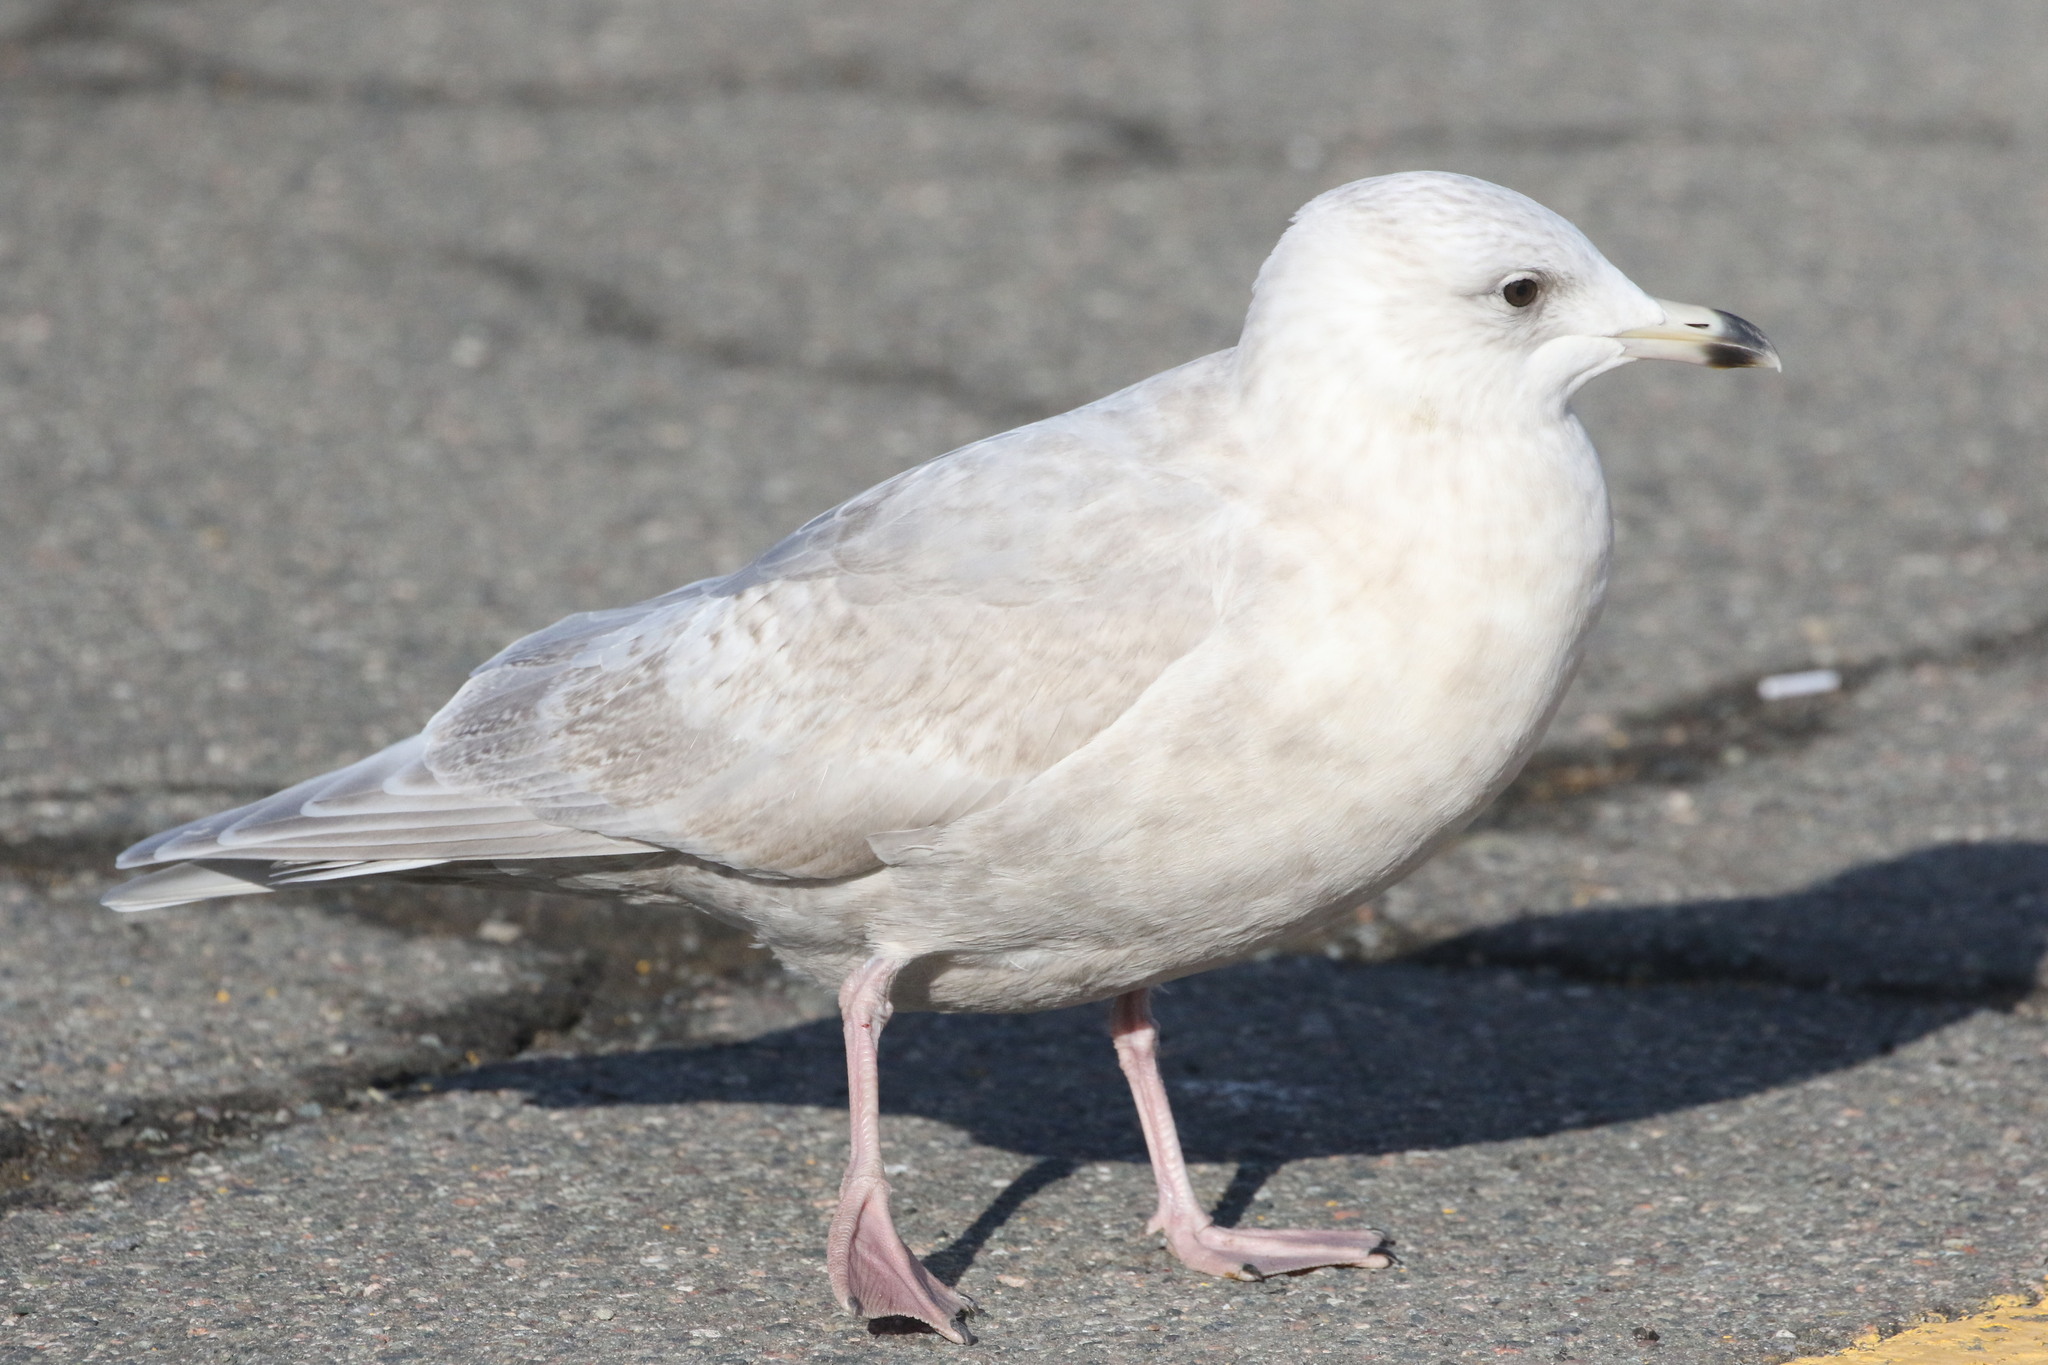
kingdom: Animalia
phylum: Chordata
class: Aves
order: Charadriiformes
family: Laridae
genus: Larus
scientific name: Larus glaucoides
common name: Iceland gull
